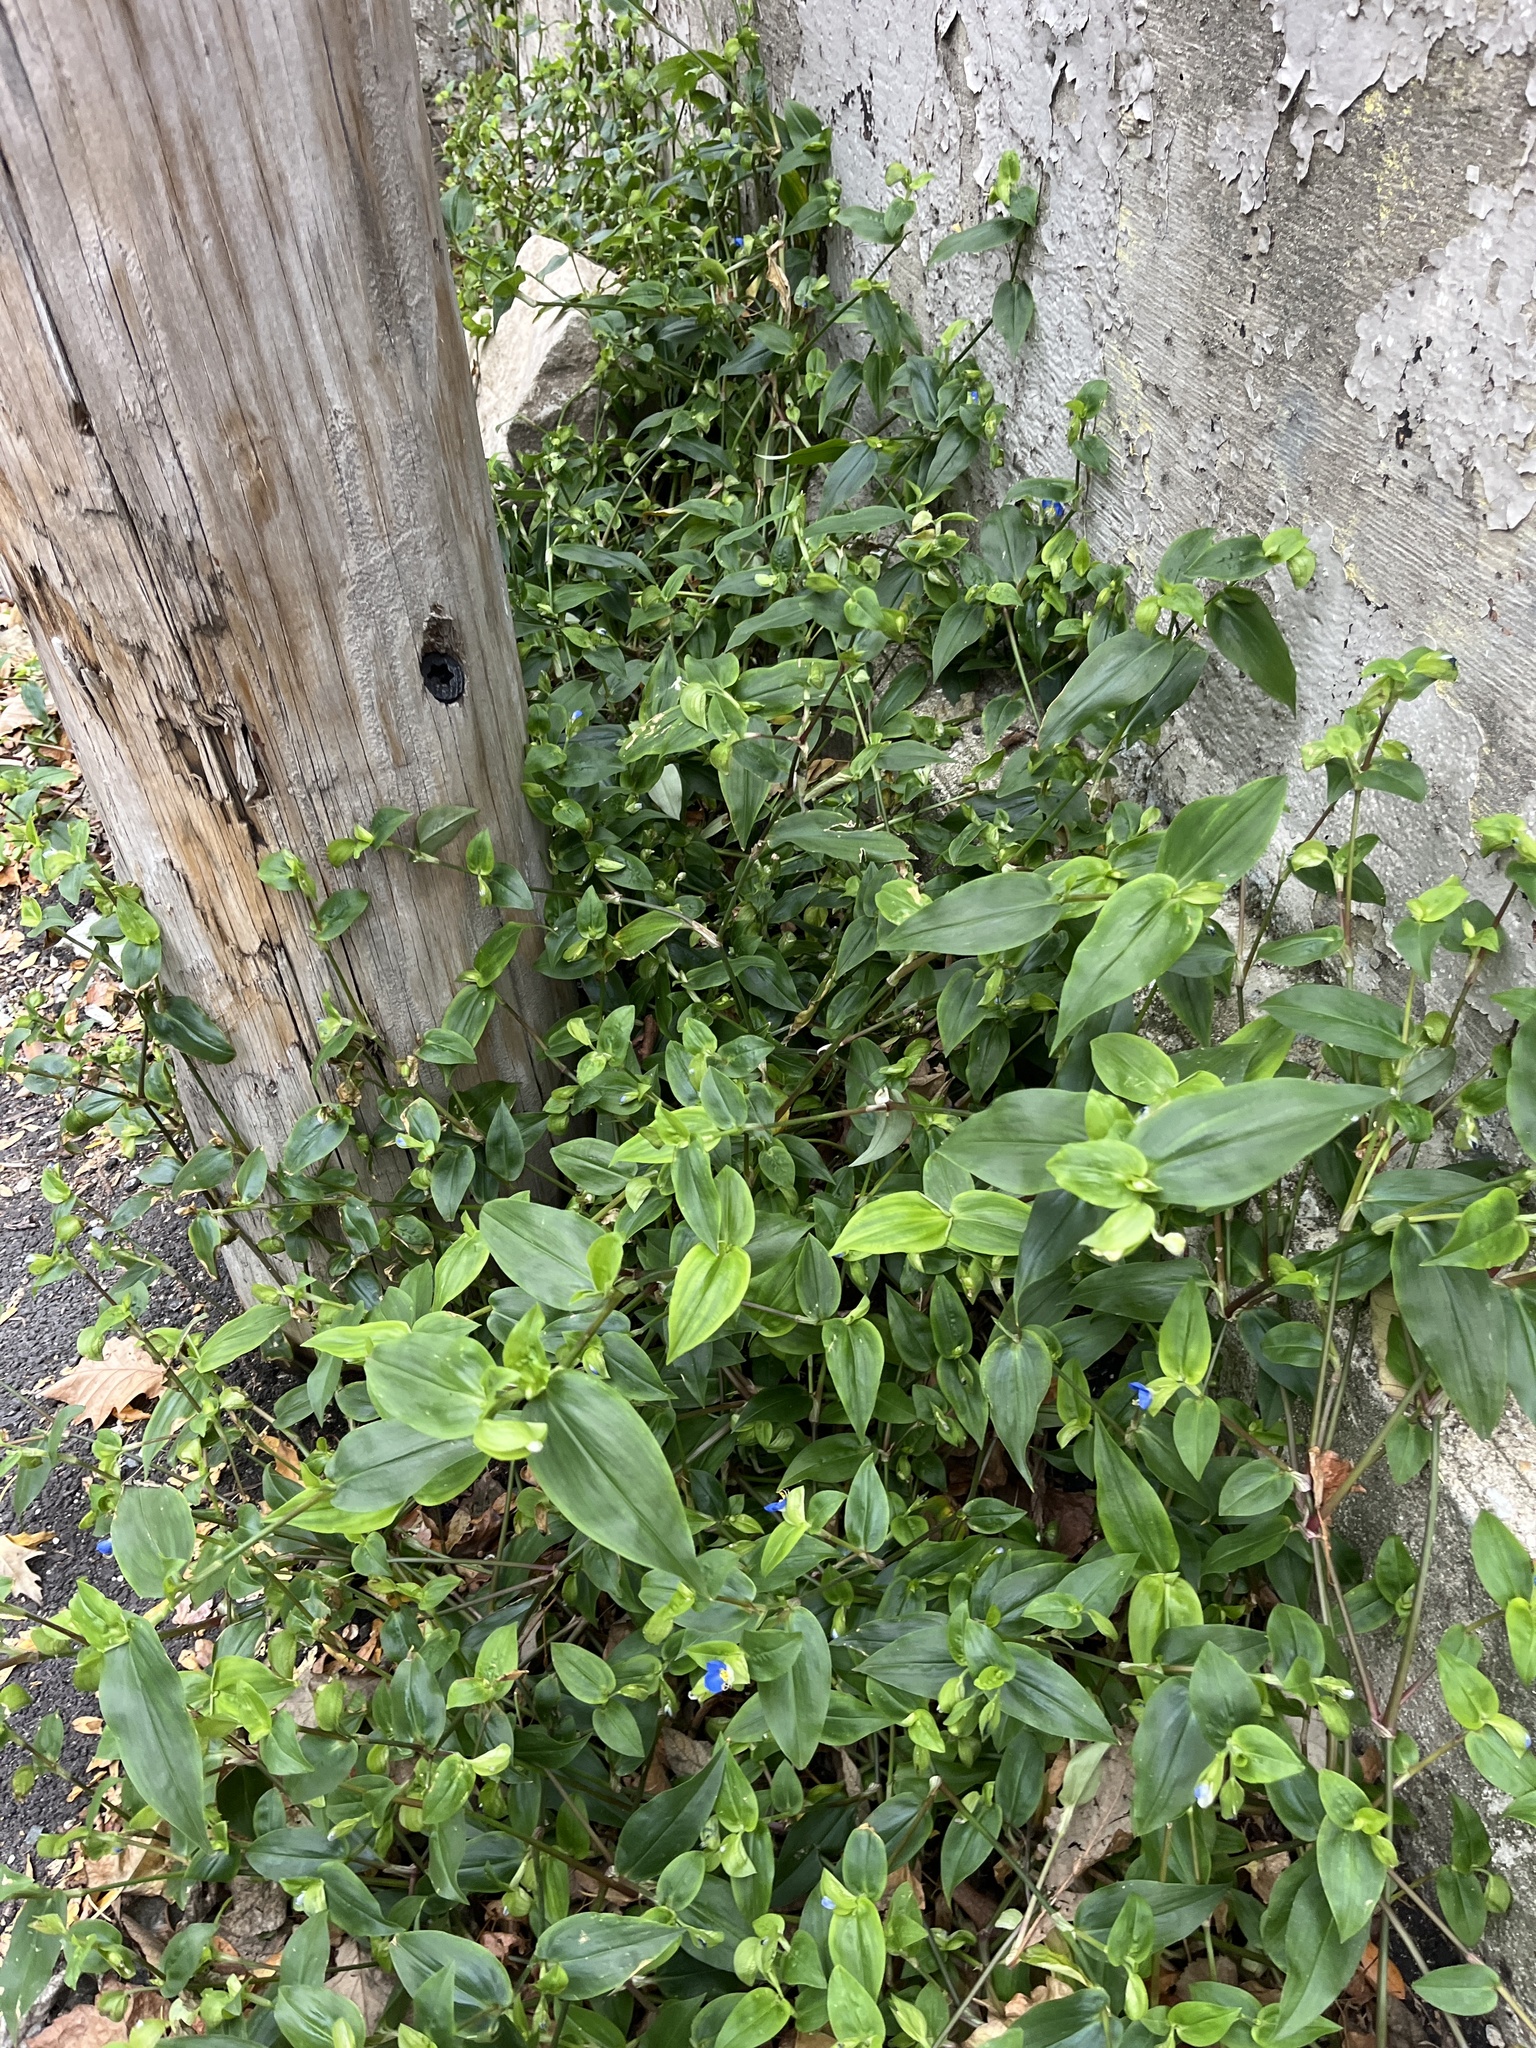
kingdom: Plantae
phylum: Tracheophyta
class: Liliopsida
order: Commelinales
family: Commelinaceae
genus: Commelina
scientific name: Commelina communis
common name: Asiatic dayflower
